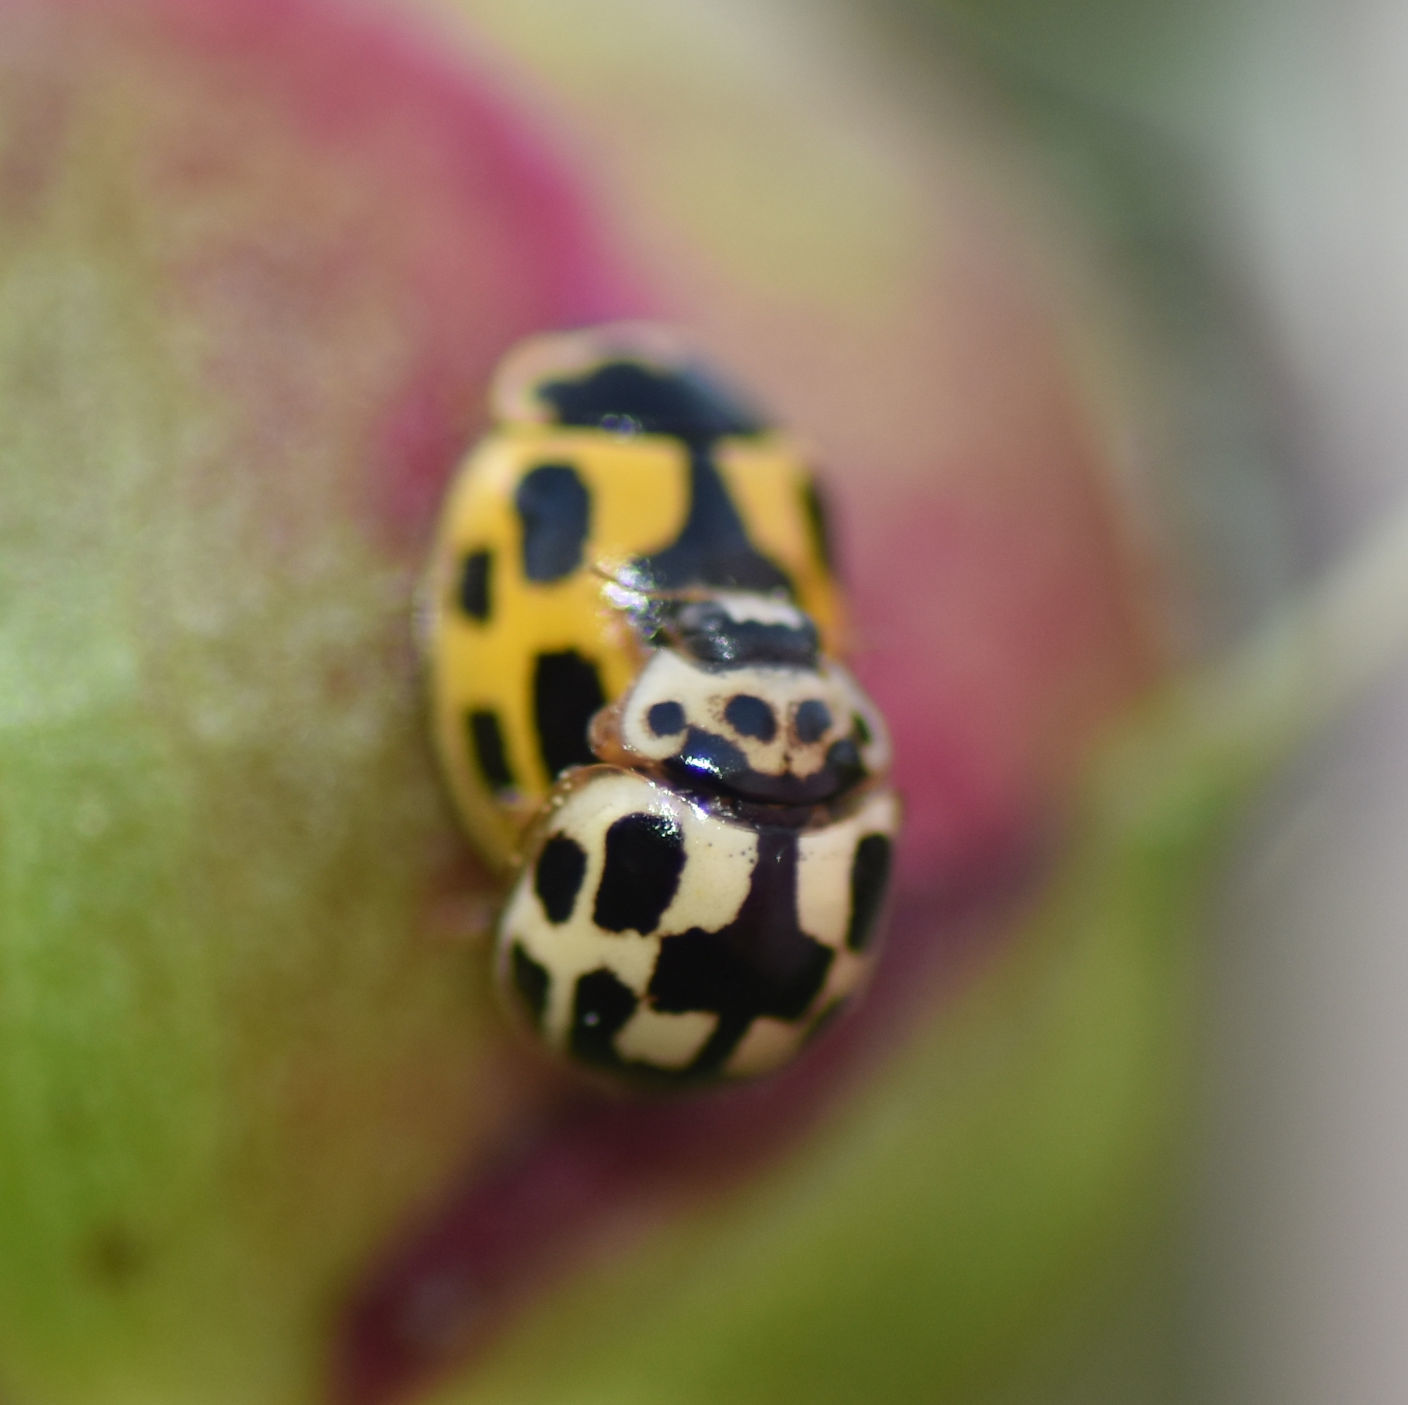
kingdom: Animalia
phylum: Arthropoda
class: Insecta
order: Coleoptera
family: Coccinellidae
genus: Propylaea
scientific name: Propylaea quatuordecimpunctata
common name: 14-spotted ladybird beetle
